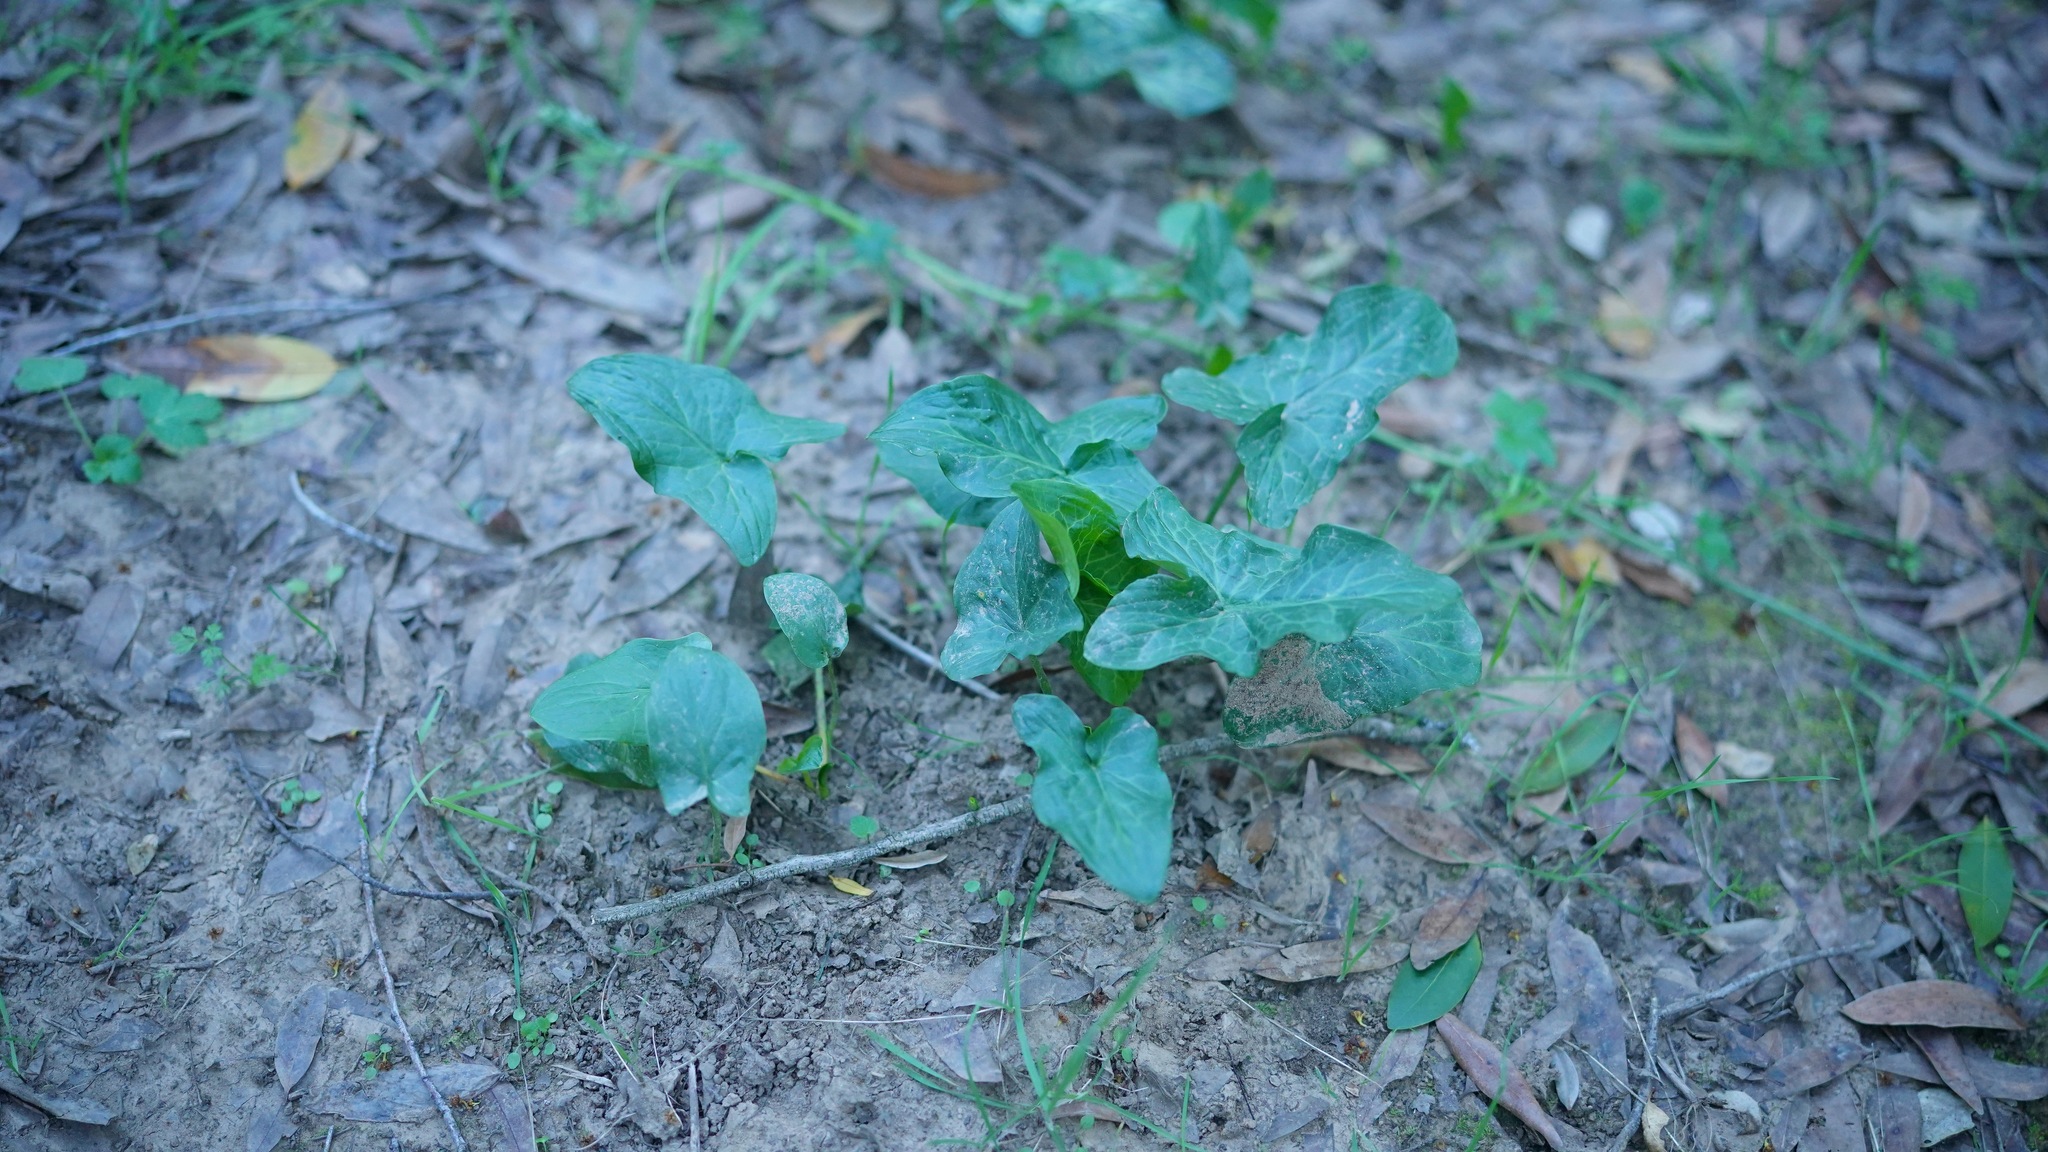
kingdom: Plantae
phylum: Tracheophyta
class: Liliopsida
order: Alismatales
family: Araceae
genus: Arum
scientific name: Arum italicum
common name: Italian lords-and-ladies
